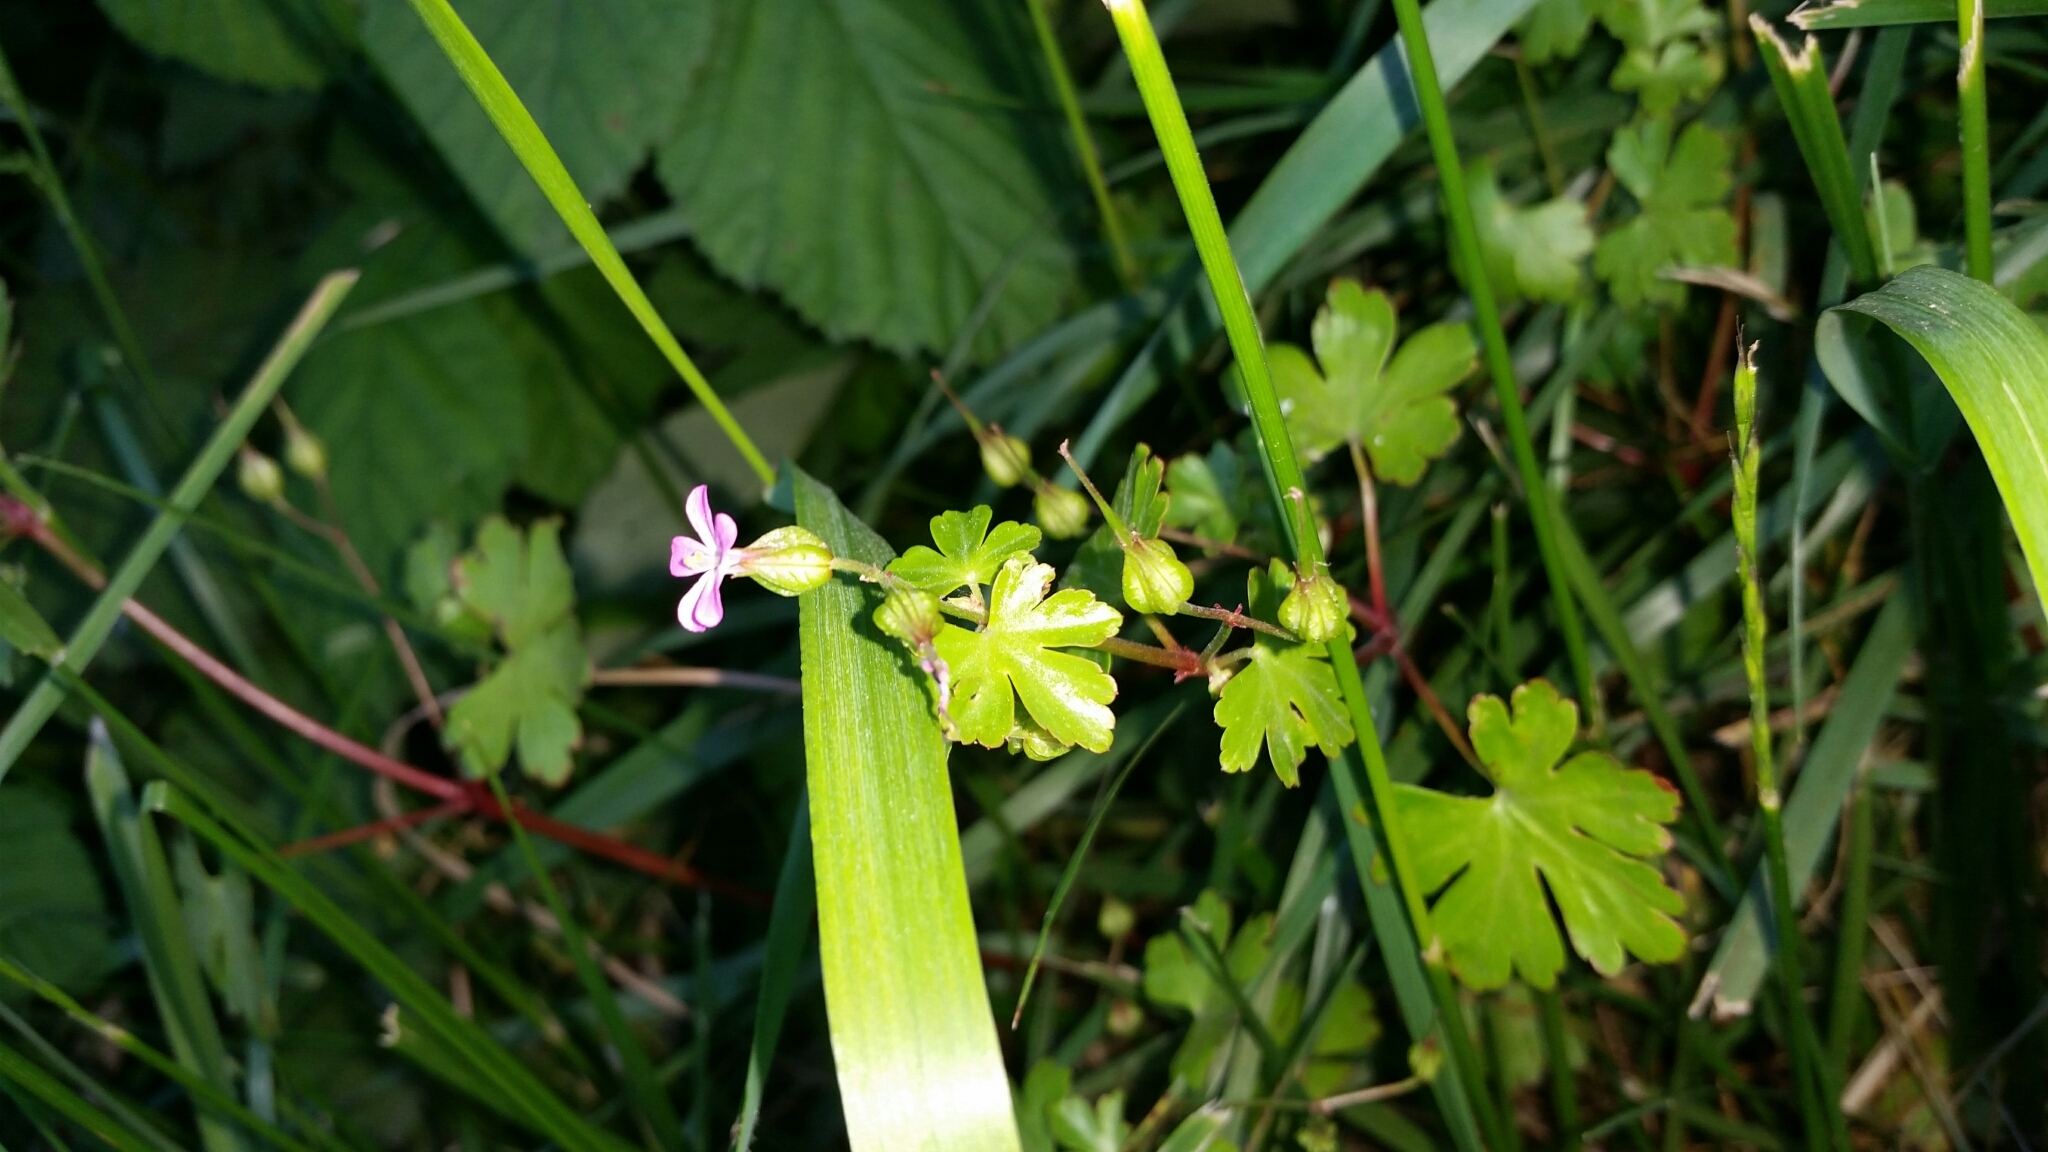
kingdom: Plantae
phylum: Tracheophyta
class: Magnoliopsida
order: Geraniales
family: Geraniaceae
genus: Geranium
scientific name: Geranium lucidum
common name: Shining crane's-bill
